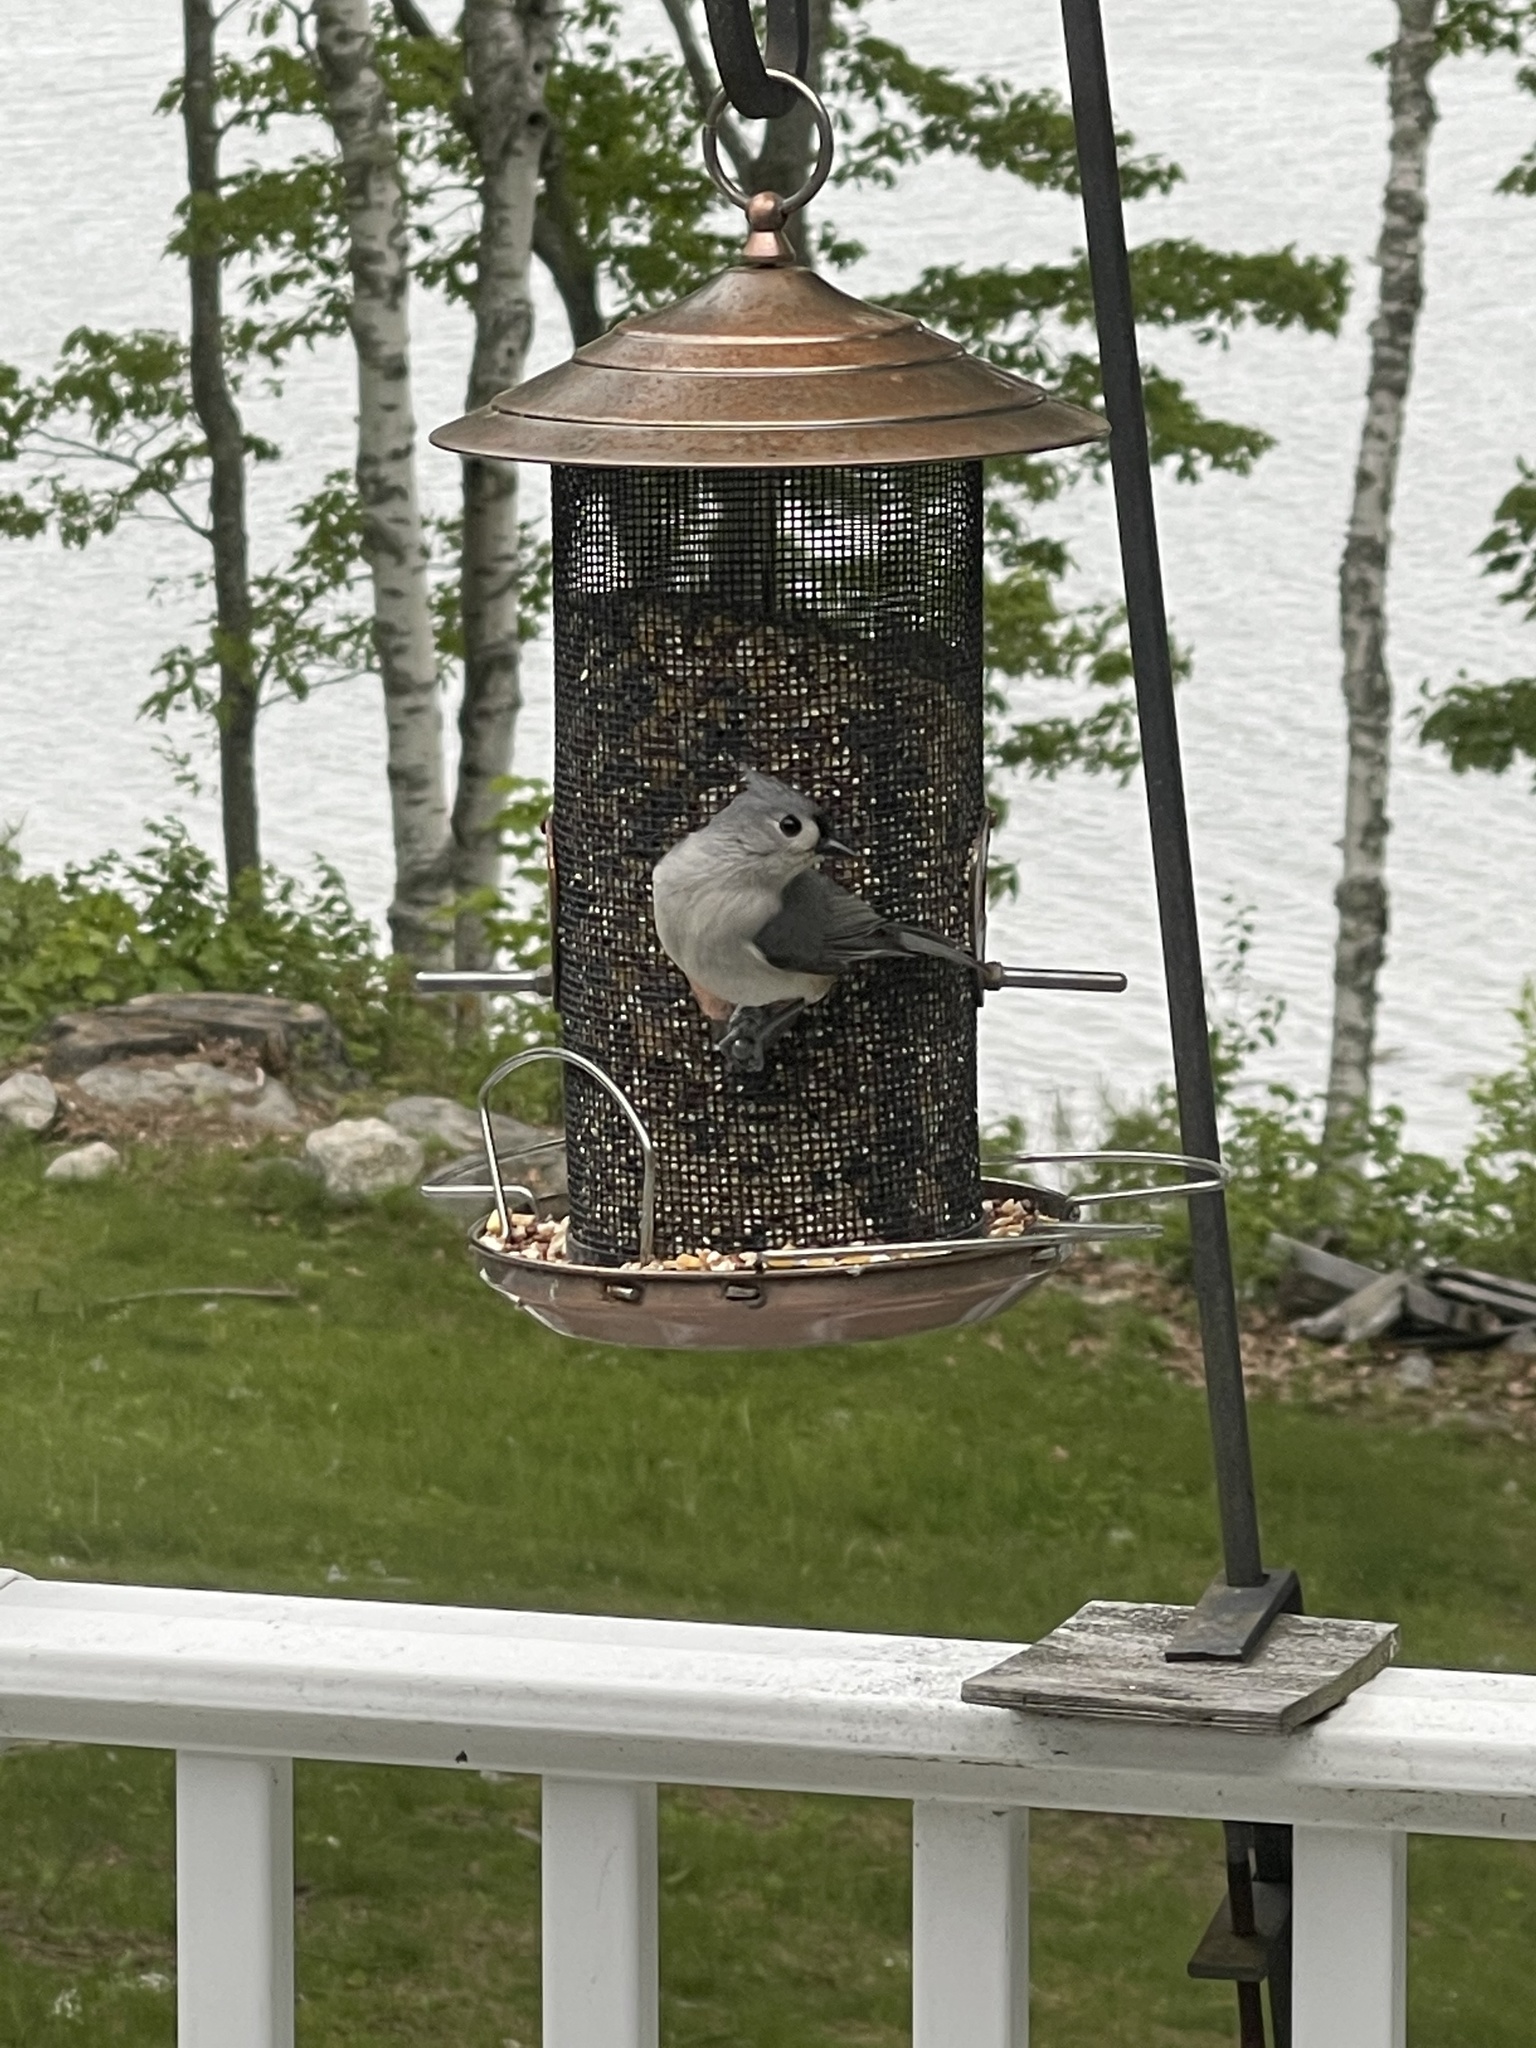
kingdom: Animalia
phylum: Chordata
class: Aves
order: Passeriformes
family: Paridae
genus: Baeolophus
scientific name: Baeolophus bicolor
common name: Tufted titmouse
